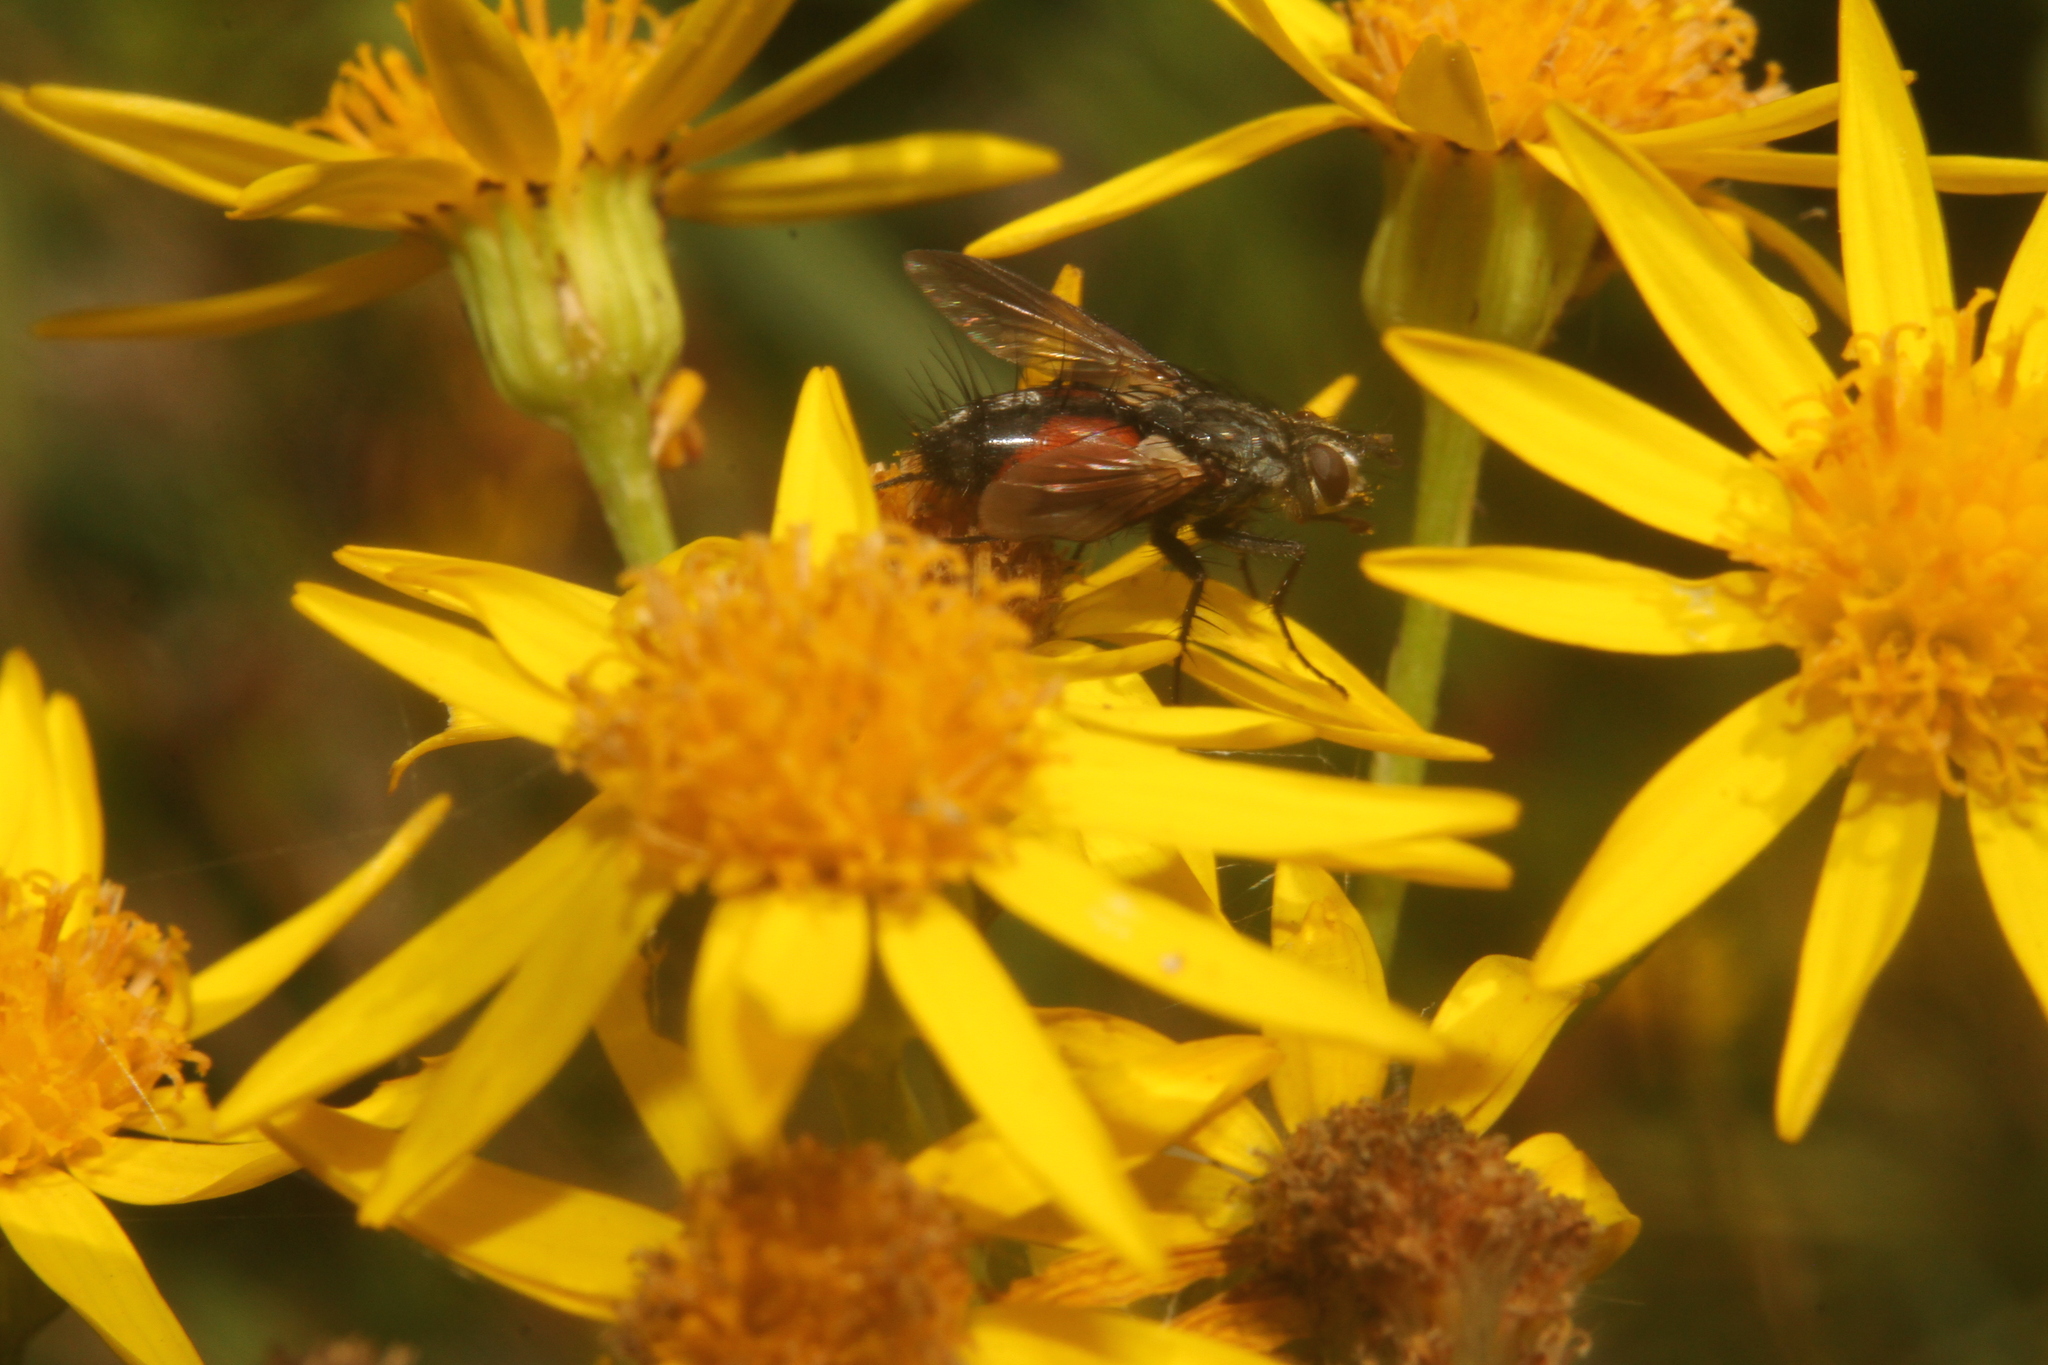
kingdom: Animalia
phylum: Arthropoda
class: Insecta
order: Diptera
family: Tachinidae
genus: Eriothrix
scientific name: Eriothrix rufomaculatus
